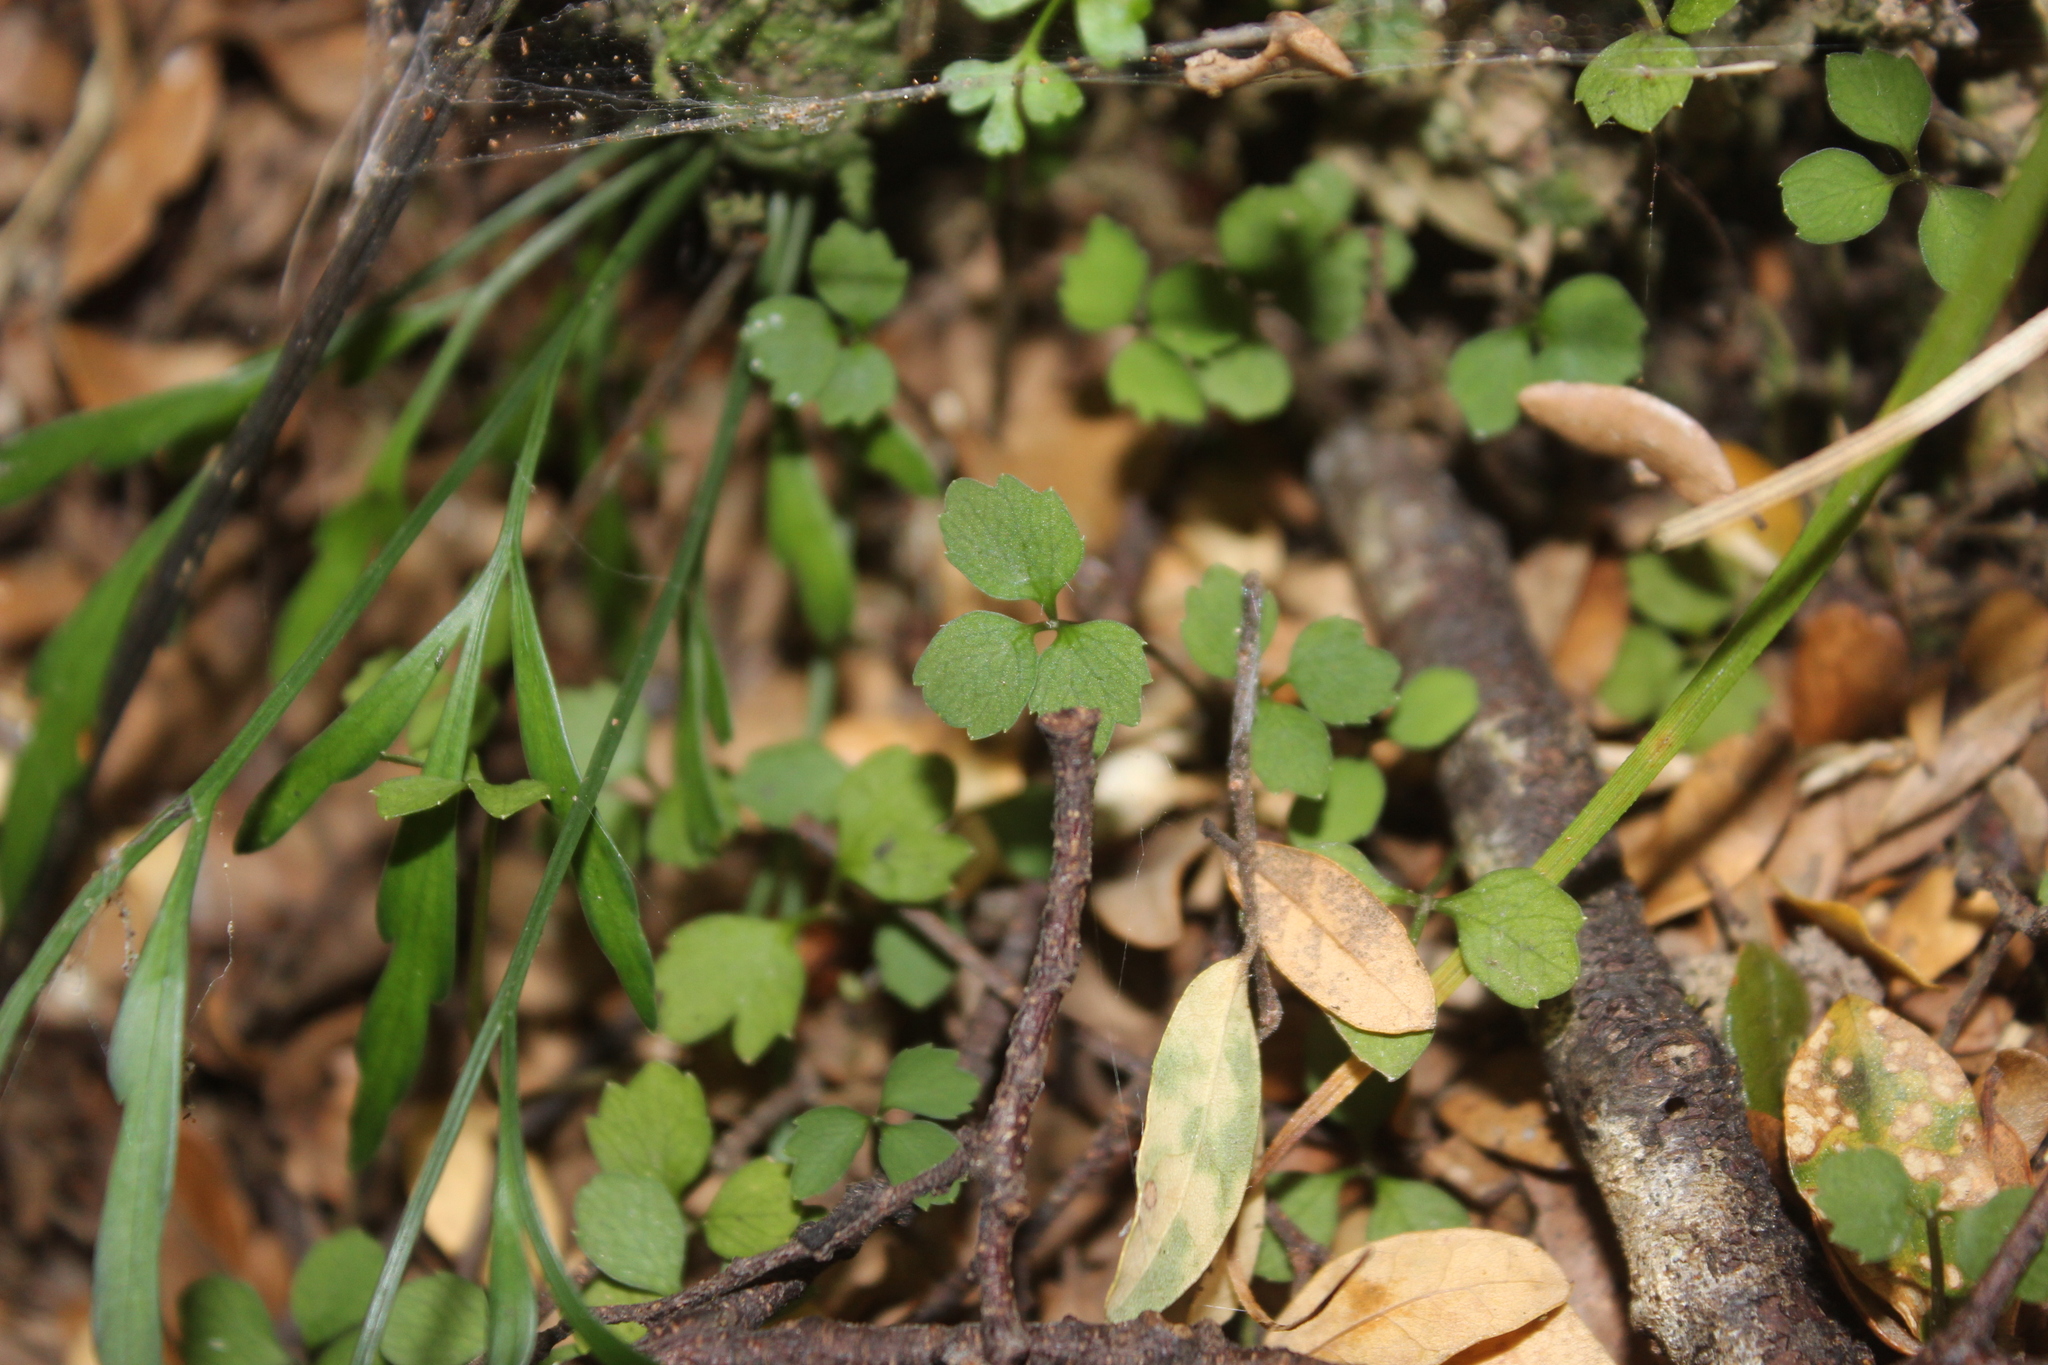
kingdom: Plantae
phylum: Tracheophyta
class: Magnoliopsida
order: Apiales
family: Apiaceae
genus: Azorella
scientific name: Azorella hookeri
